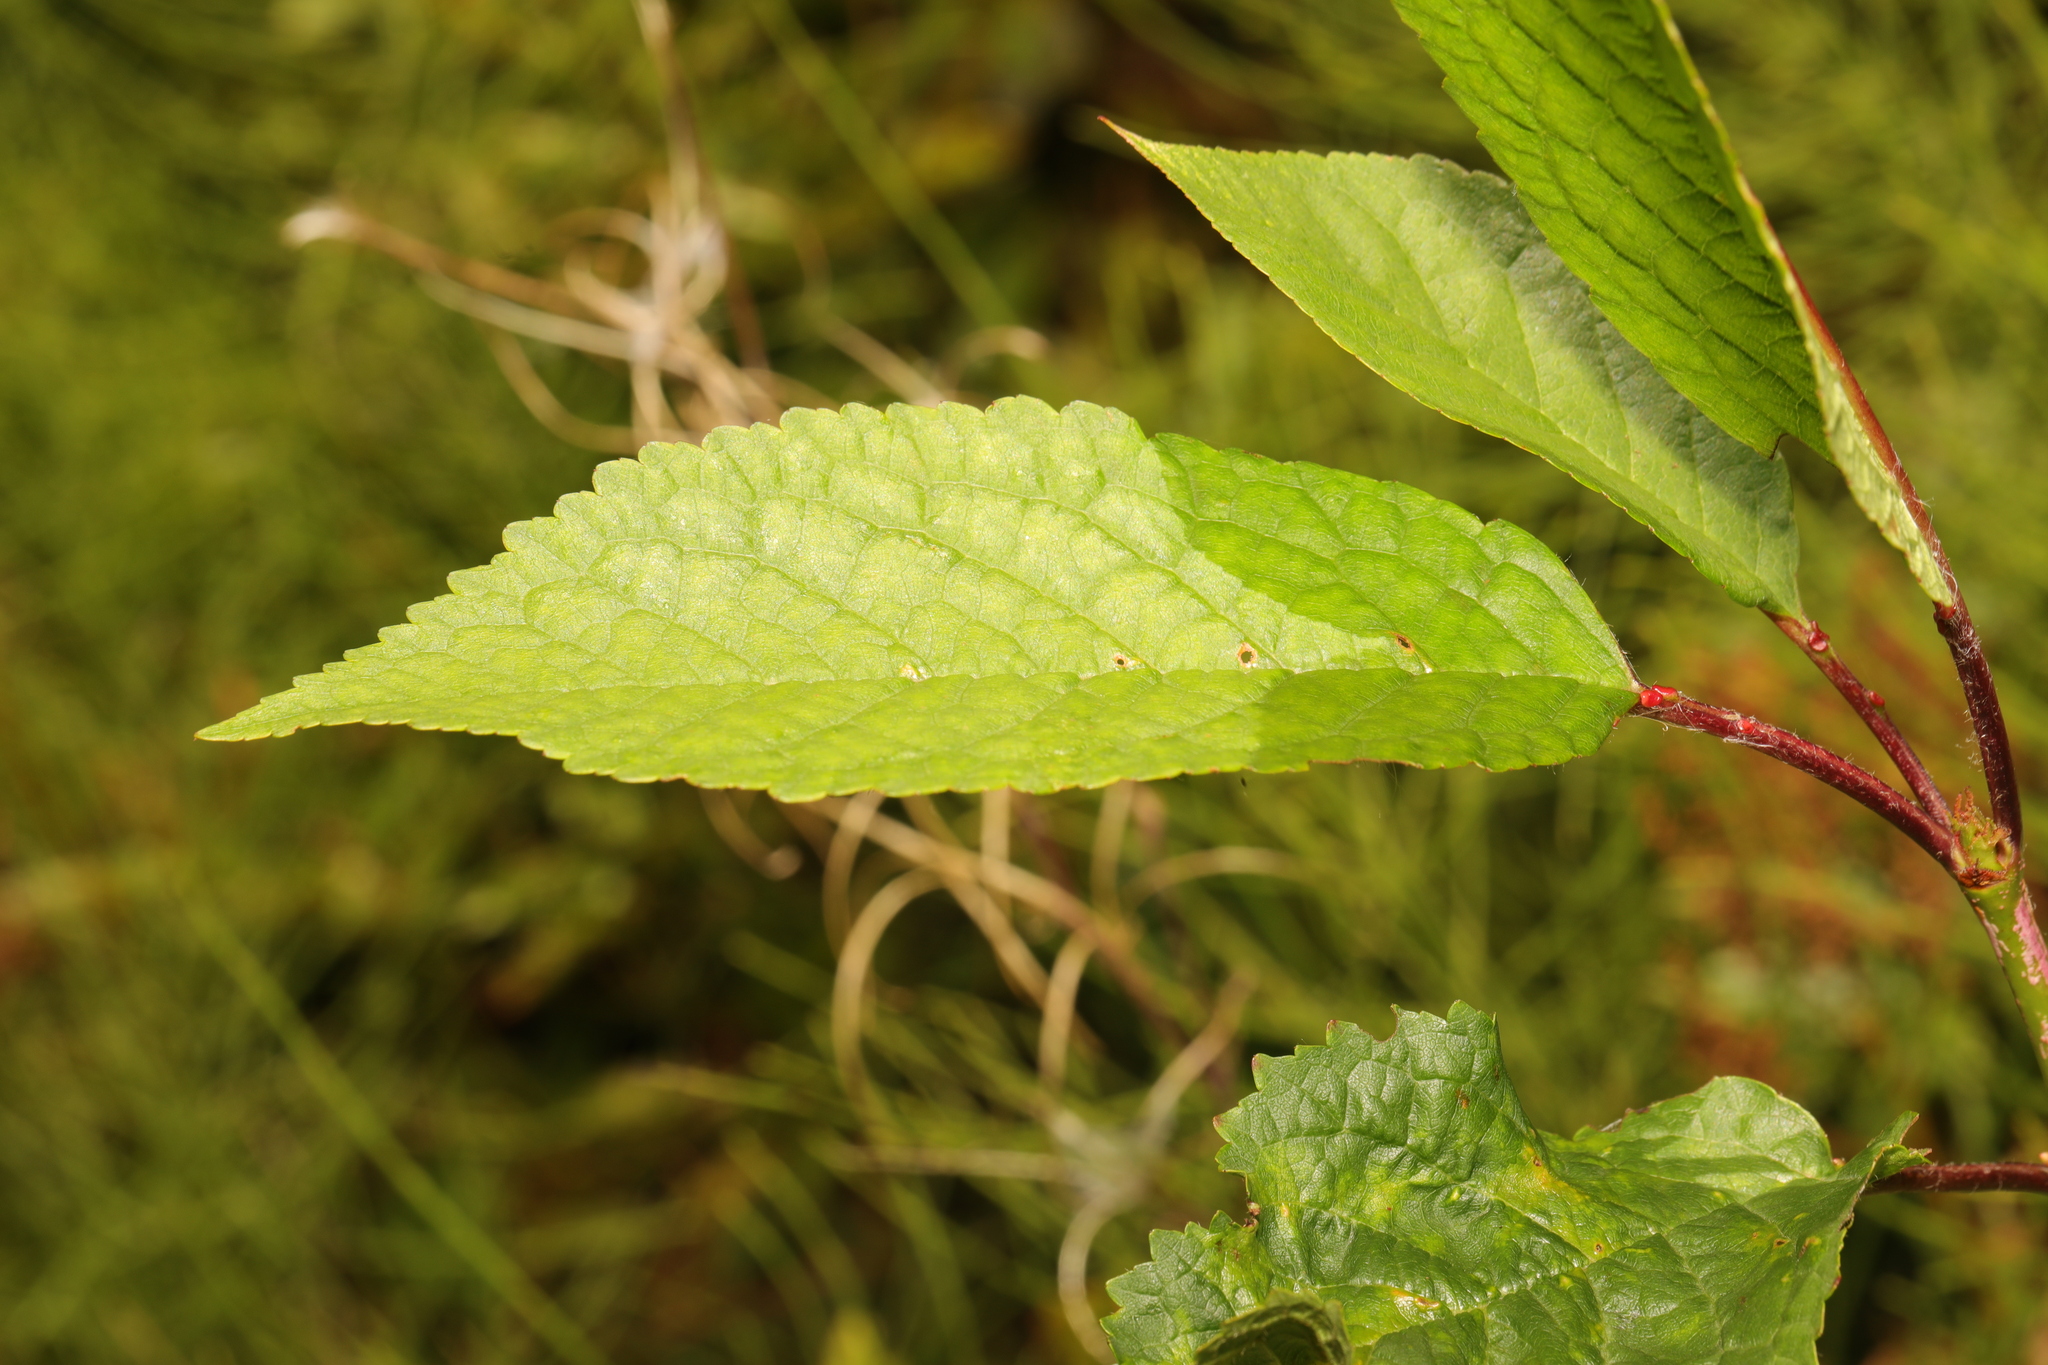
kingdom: Plantae
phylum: Tracheophyta
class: Magnoliopsida
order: Rosales
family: Rosaceae
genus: Prunus
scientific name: Prunus avium
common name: Sweet cherry
